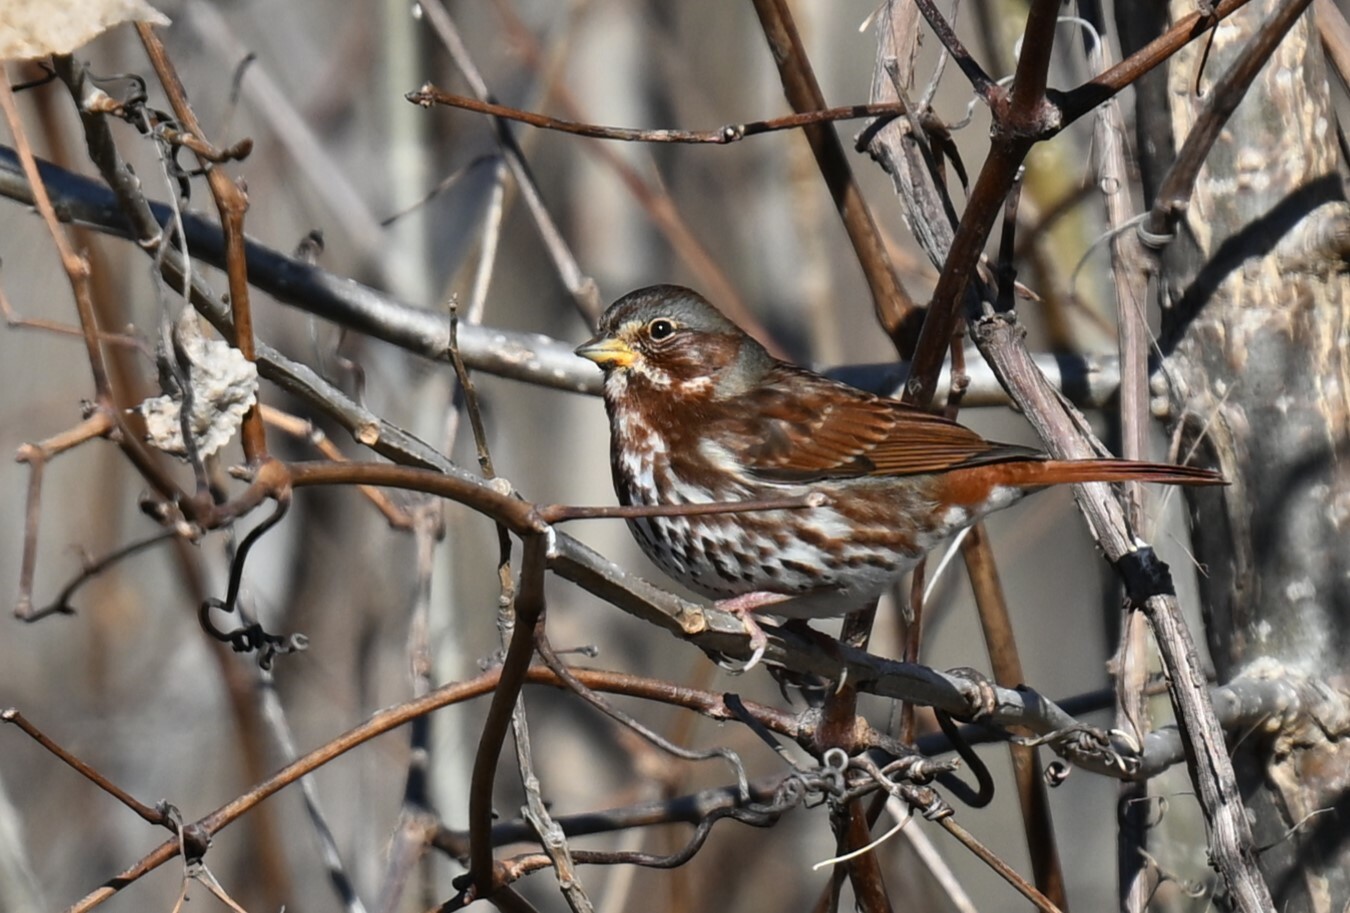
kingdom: Animalia
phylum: Chordata
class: Aves
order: Passeriformes
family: Passerellidae
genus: Passerella
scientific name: Passerella iliaca
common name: Fox sparrow
